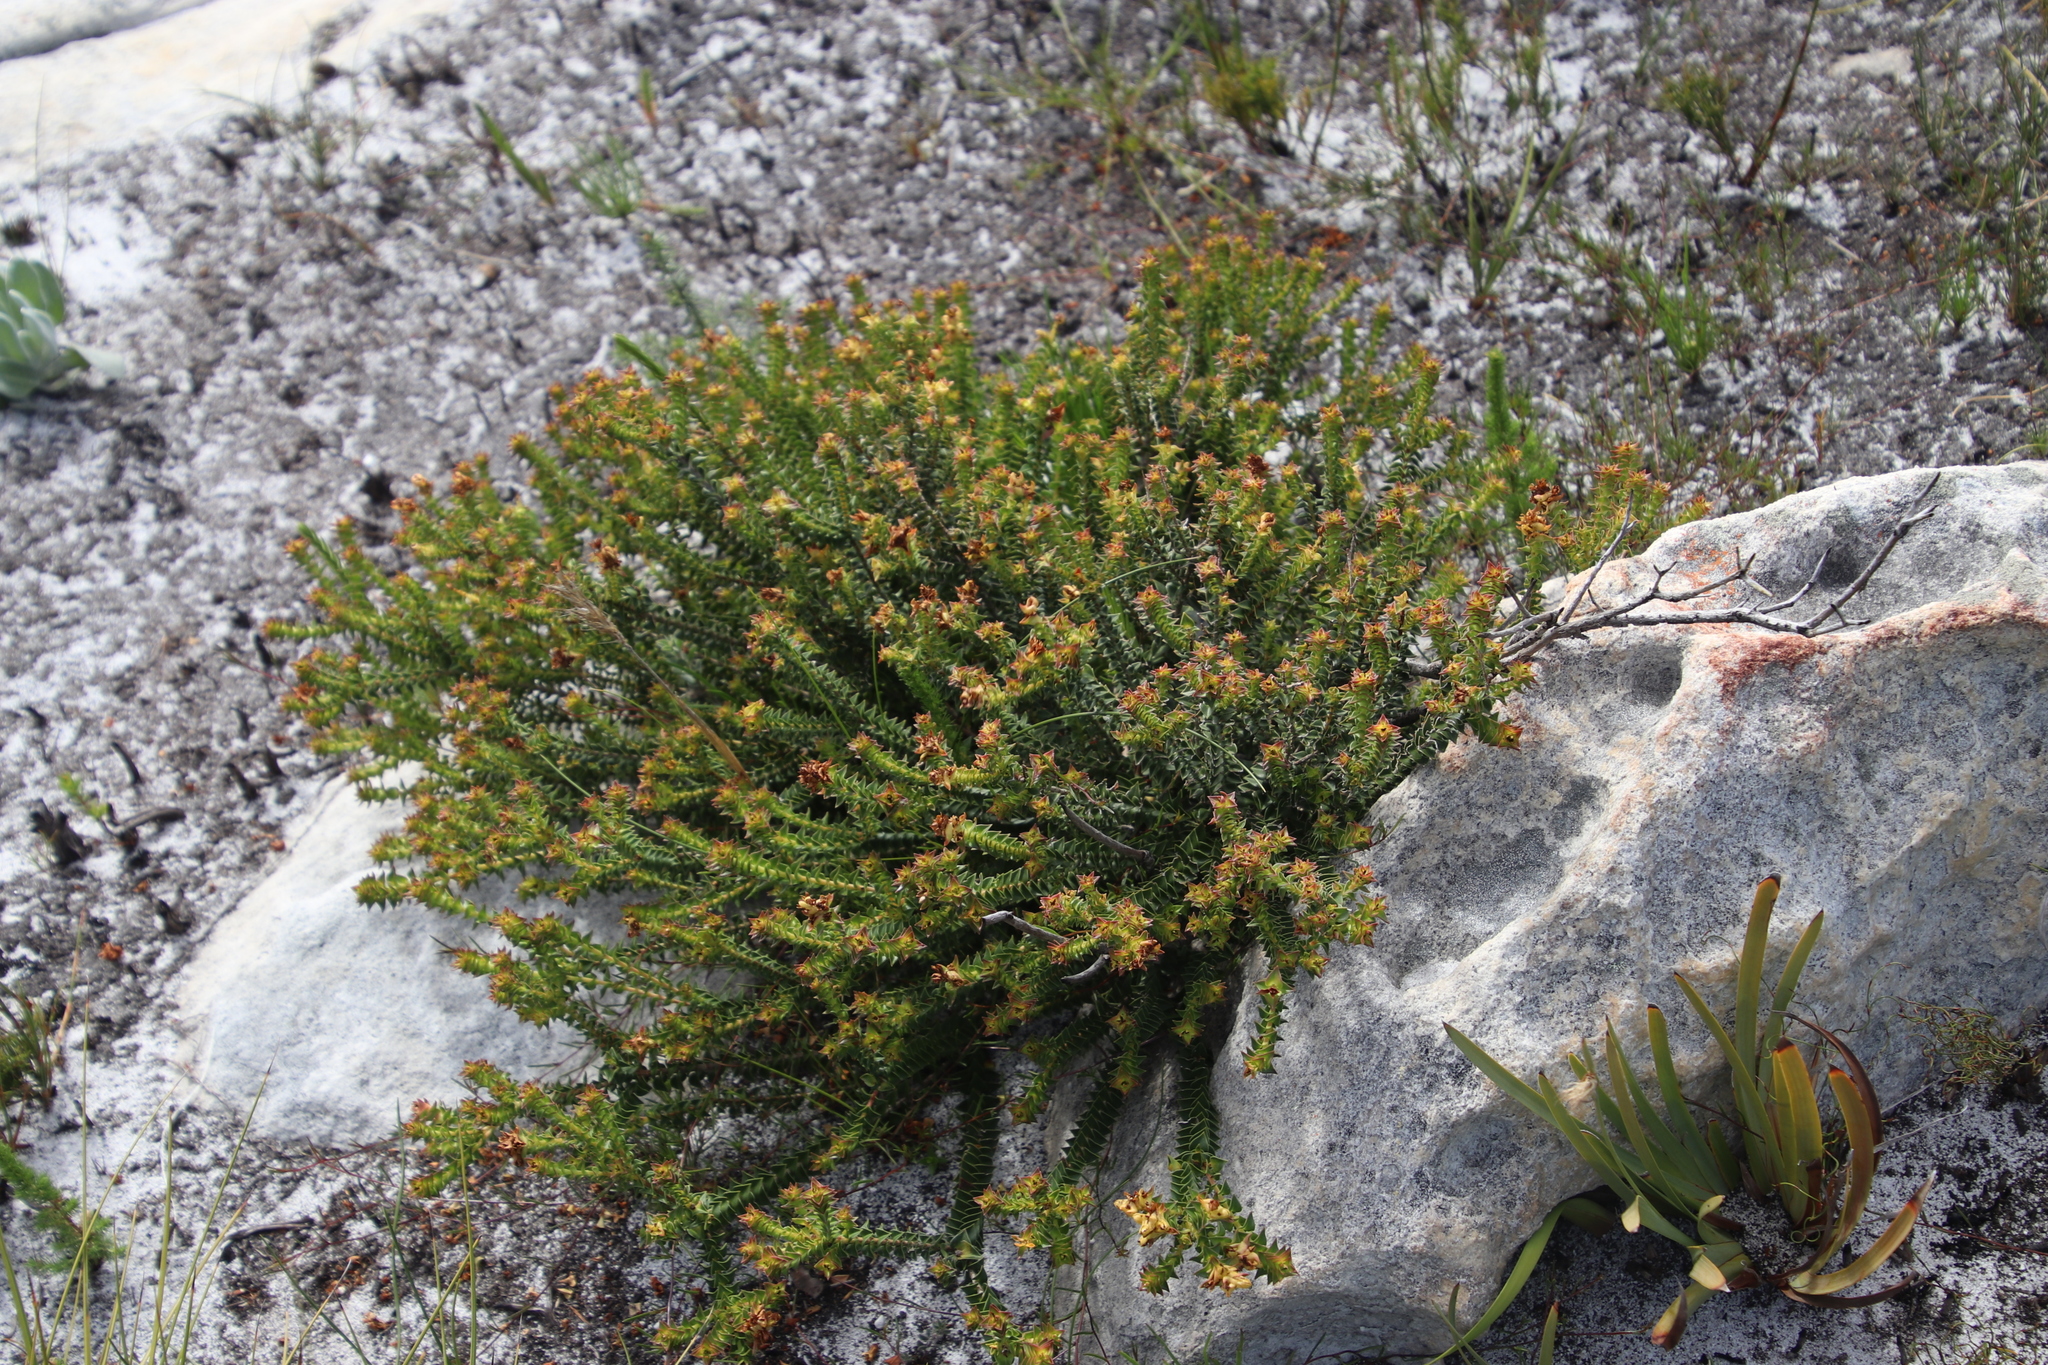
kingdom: Plantae
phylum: Tracheophyta
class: Magnoliopsida
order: Myrtales
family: Penaeaceae
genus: Penaea
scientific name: Penaea mucronata
